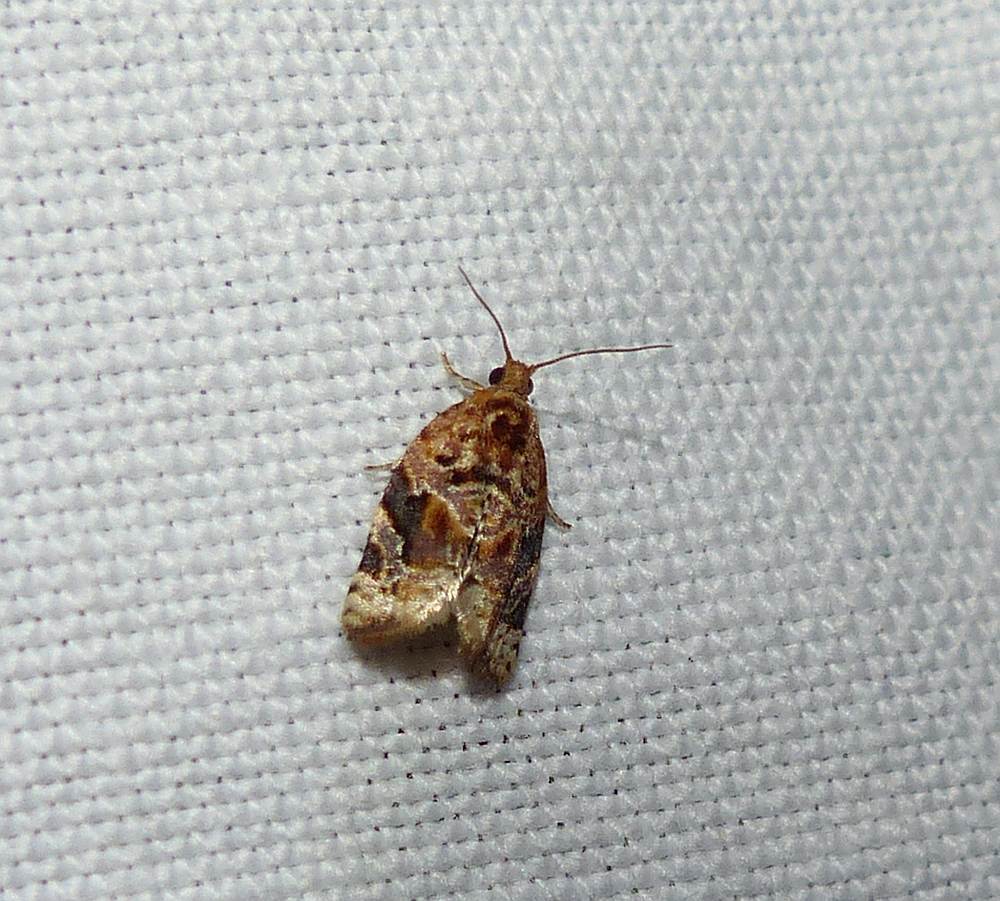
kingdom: Animalia
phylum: Arthropoda
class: Insecta
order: Lepidoptera
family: Tortricidae
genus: Argyrotaenia
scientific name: Argyrotaenia velutinana
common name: Red-banded leafroller moth
